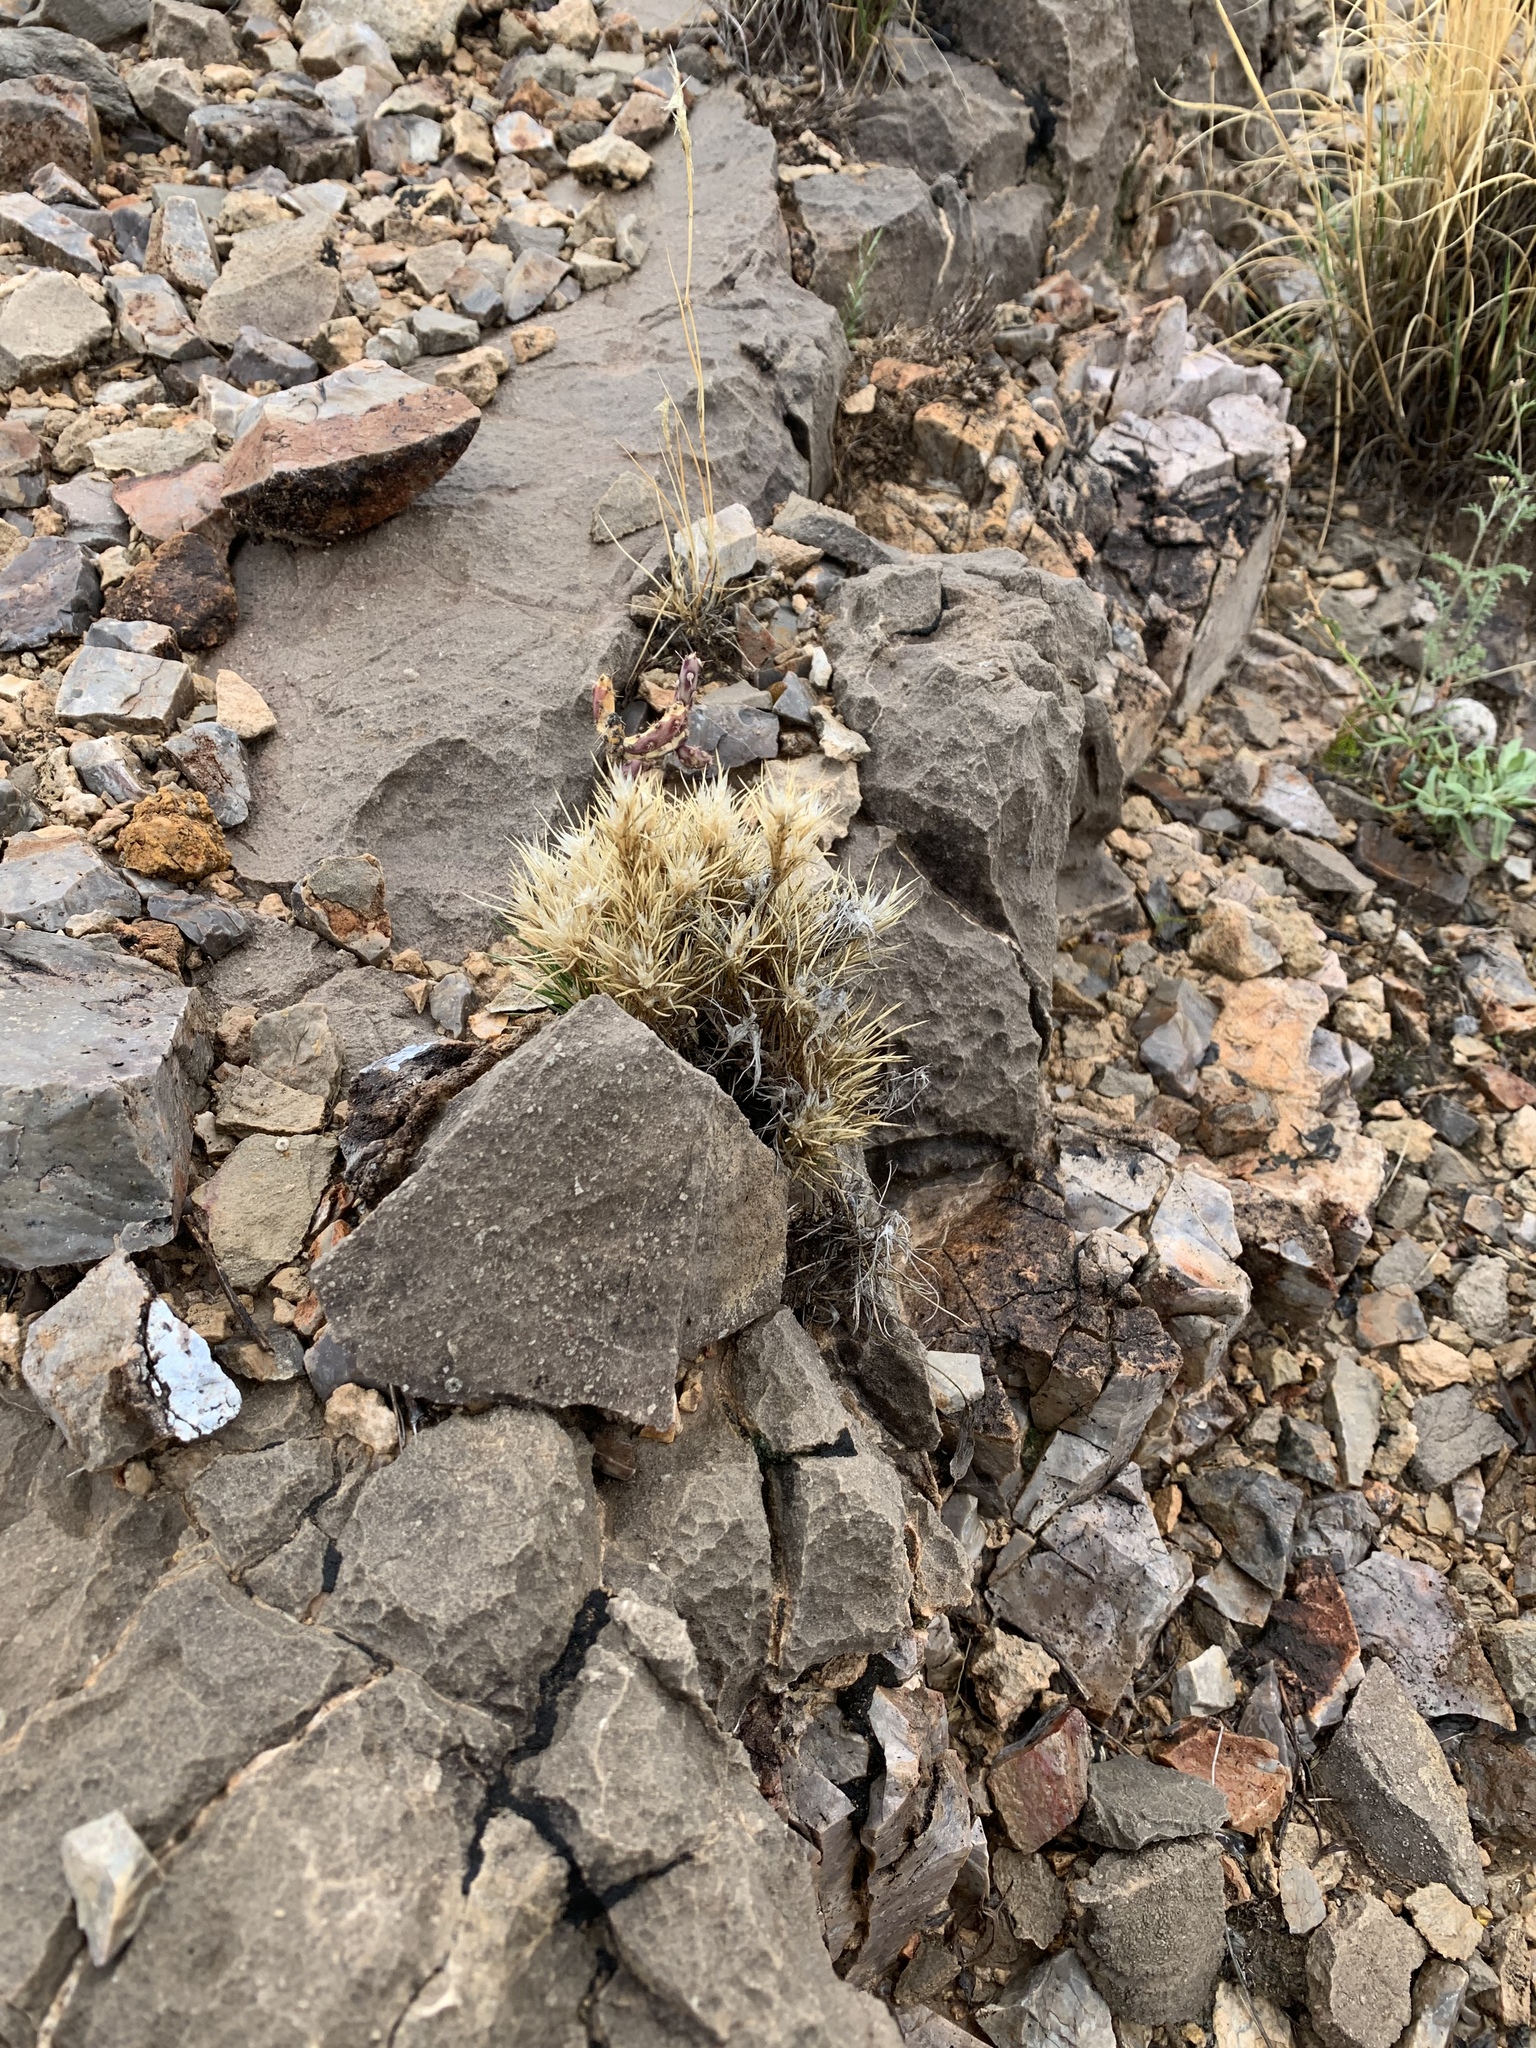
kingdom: Plantae
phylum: Tracheophyta
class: Liliopsida
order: Poales
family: Poaceae
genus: Dasyochloa
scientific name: Dasyochloa pulchella
